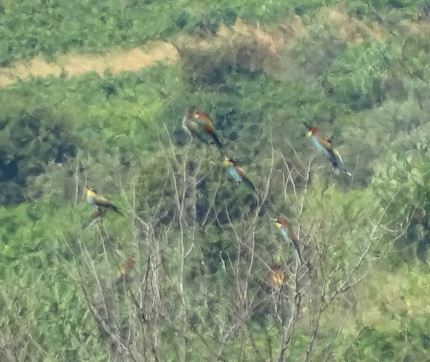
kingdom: Animalia
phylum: Chordata
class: Aves
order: Coraciiformes
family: Meropidae
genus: Merops
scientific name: Merops apiaster
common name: European bee-eater
